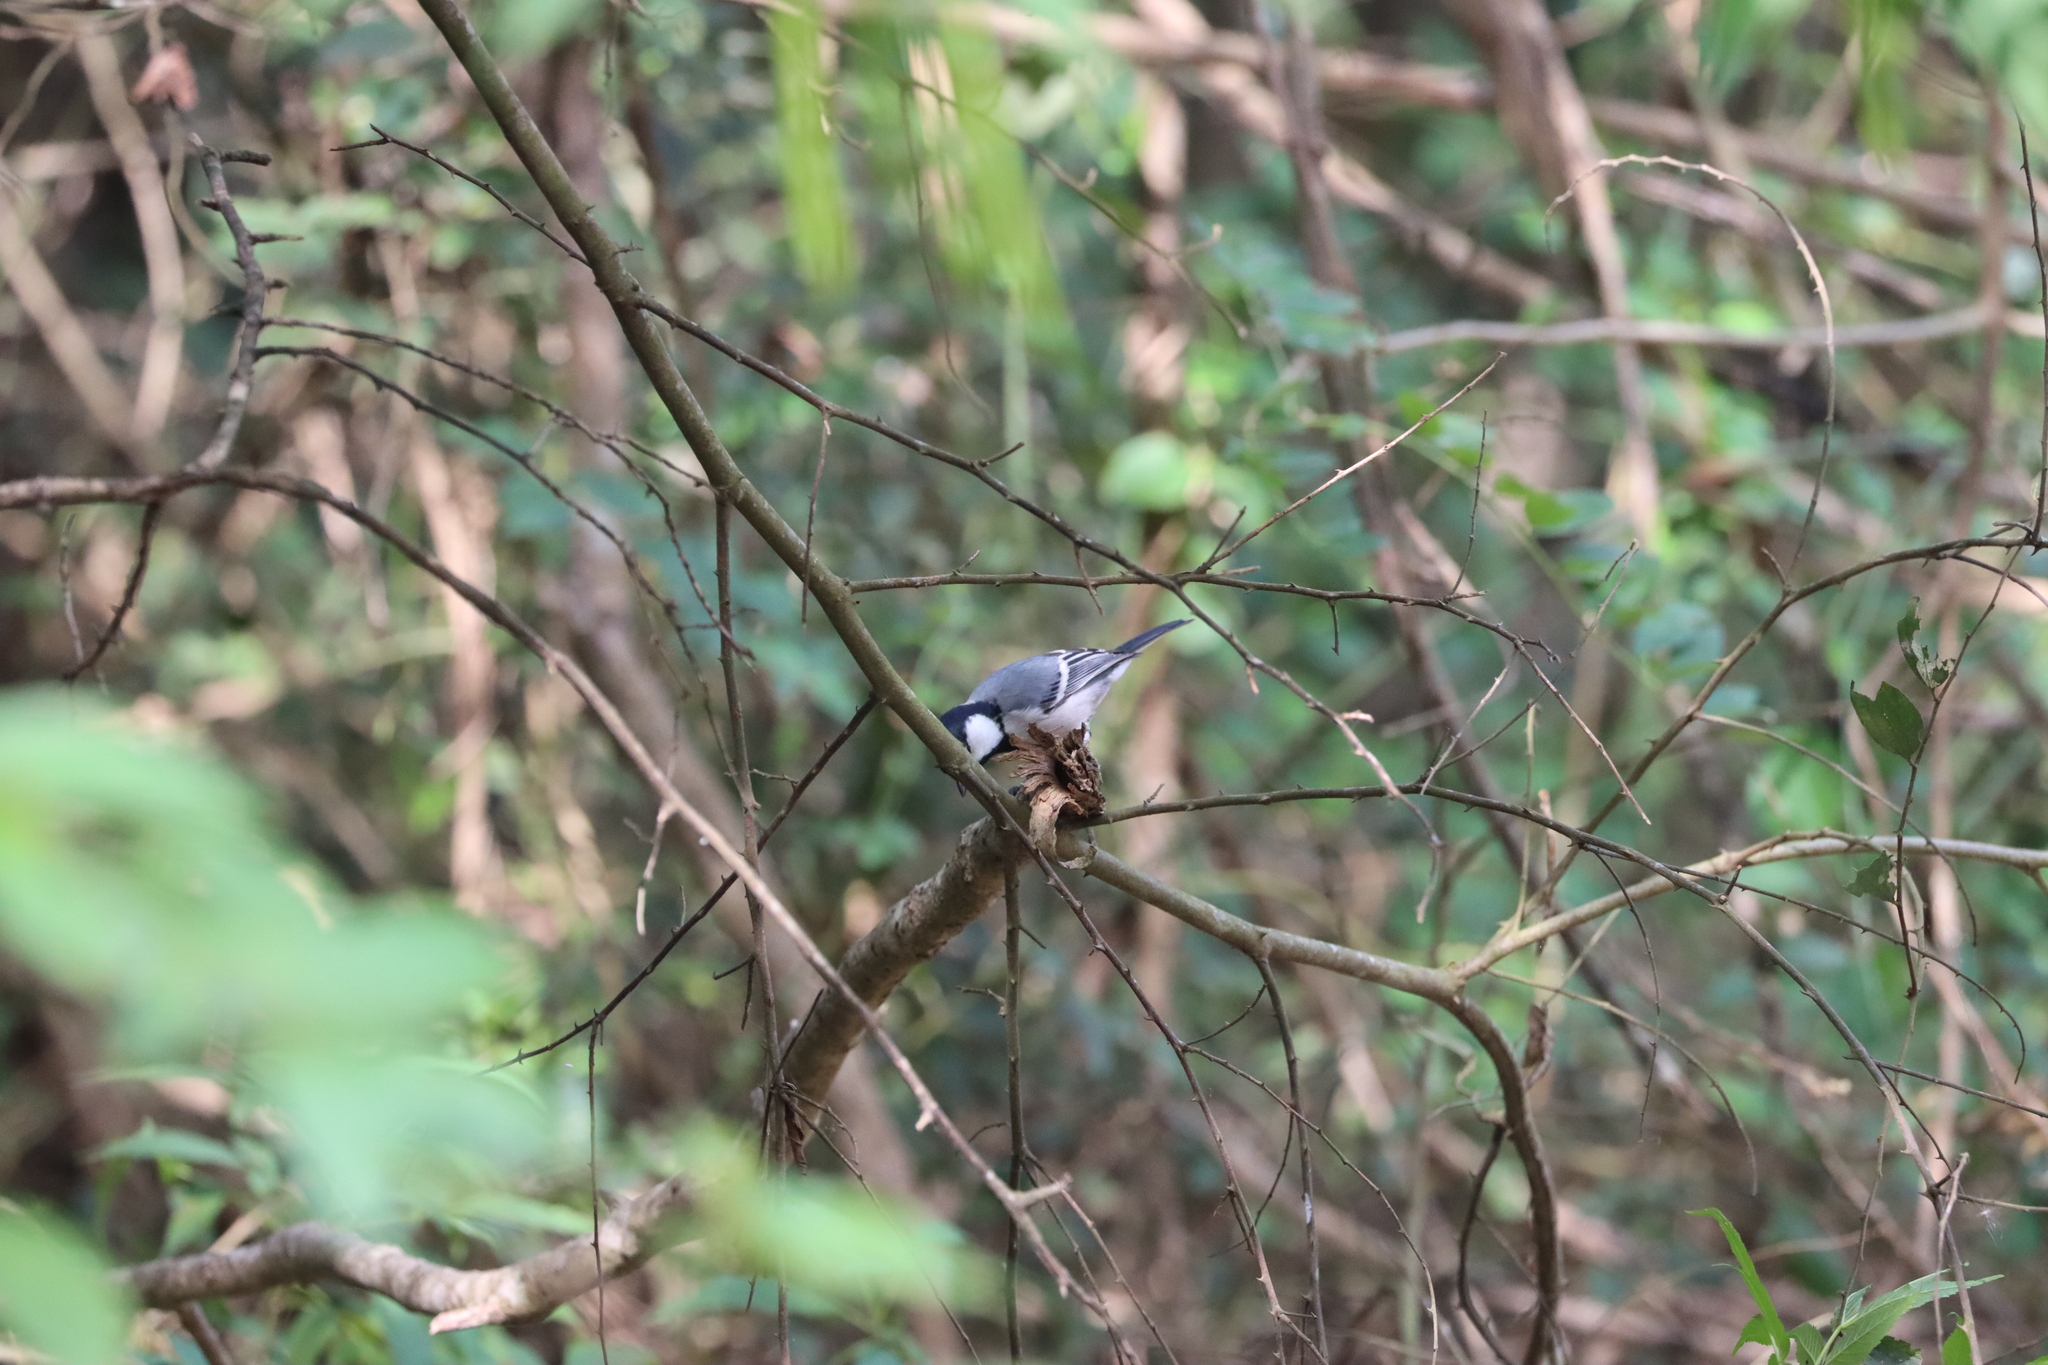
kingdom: Animalia
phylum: Chordata
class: Aves
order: Passeriformes
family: Paridae
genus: Parus
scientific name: Parus cinereus
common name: Cinereous tit
